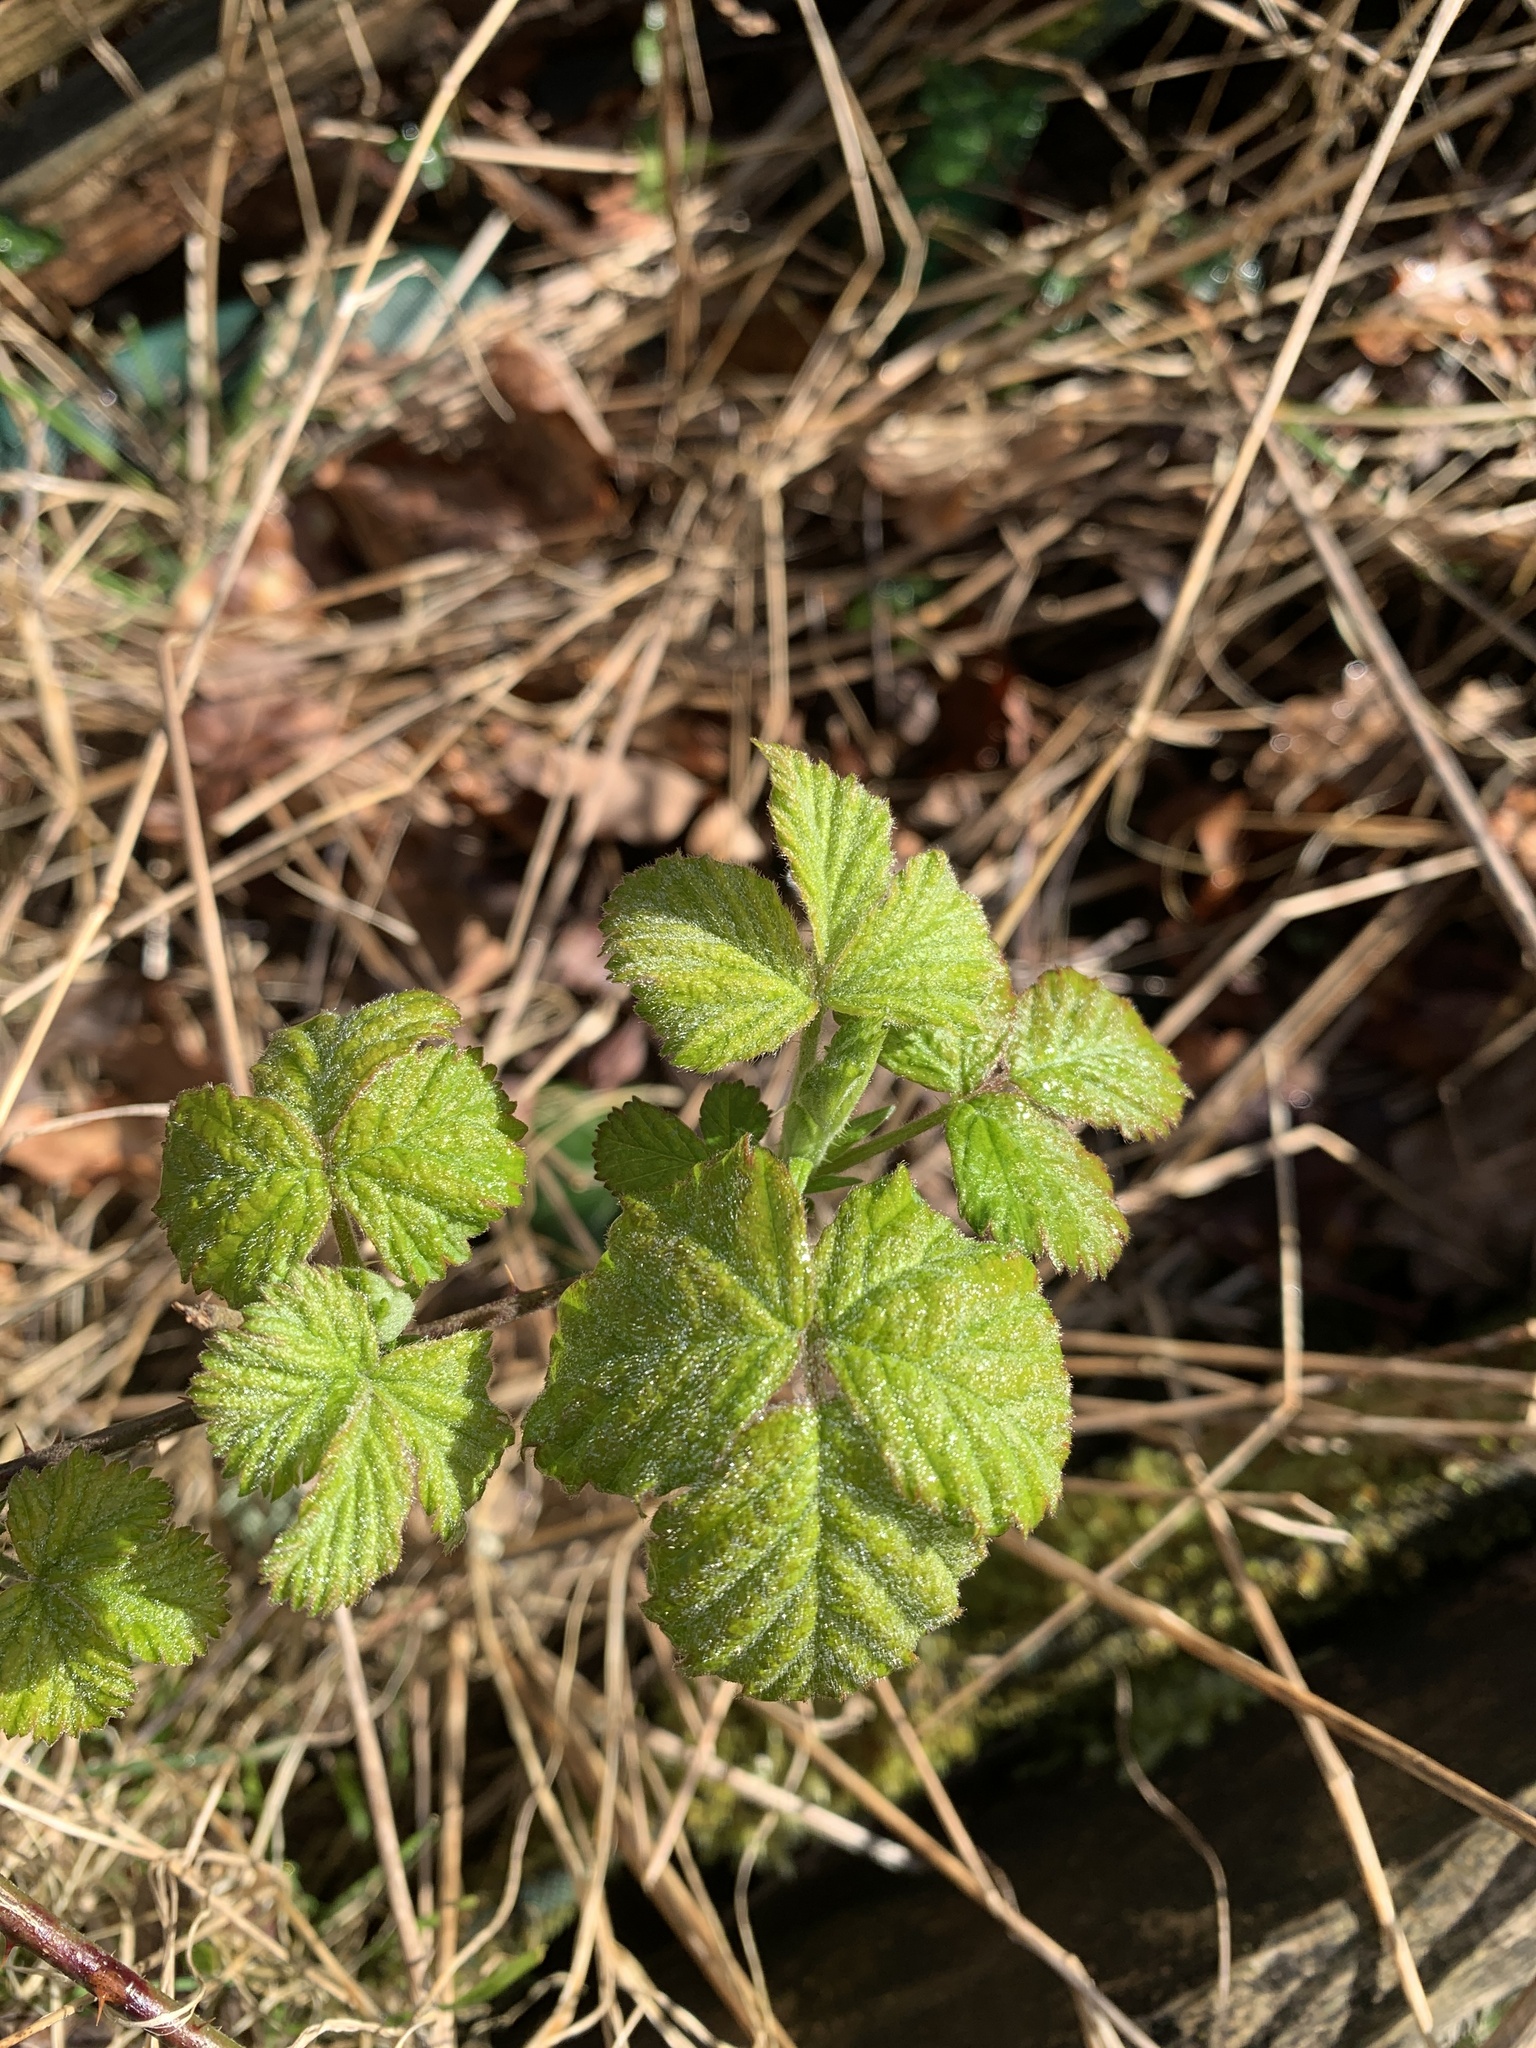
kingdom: Plantae
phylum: Tracheophyta
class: Magnoliopsida
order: Rosales
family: Rosaceae
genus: Rubus
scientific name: Rubus fruticosus
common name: Blackberry, bramble
